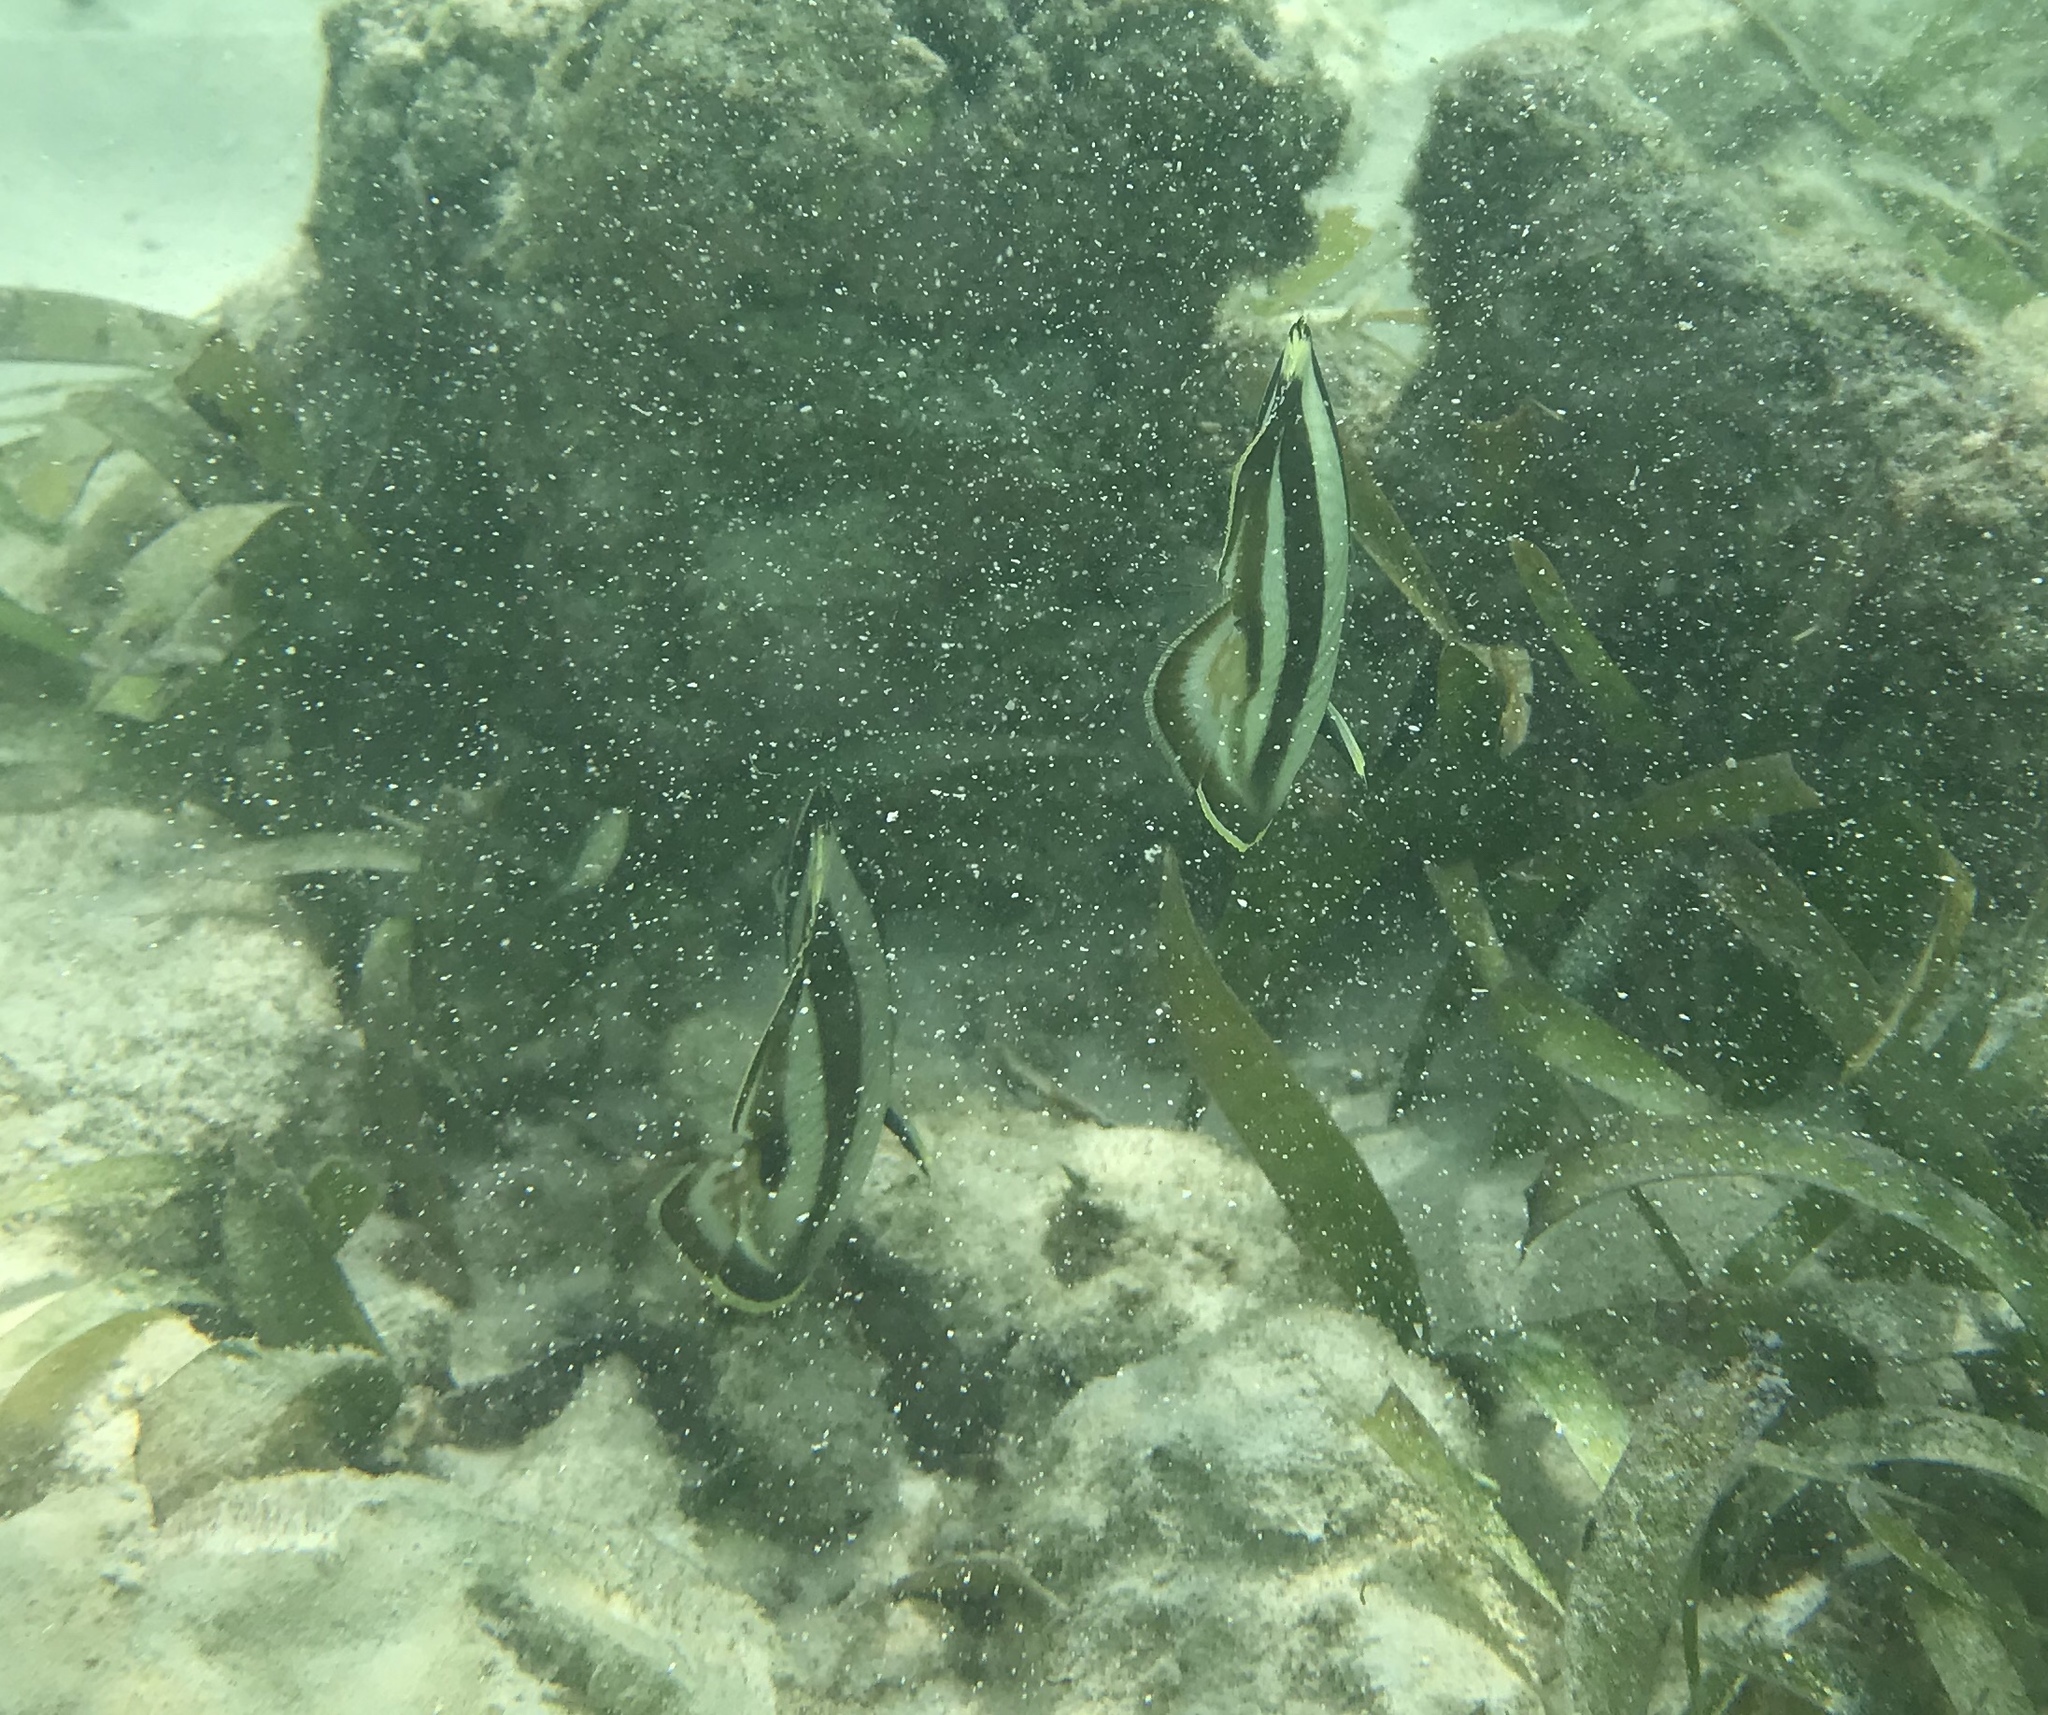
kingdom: Animalia
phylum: Chordata
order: Perciformes
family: Chaetodontidae
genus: Chaetodon
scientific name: Chaetodon striatus
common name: Banded butterflyfish
